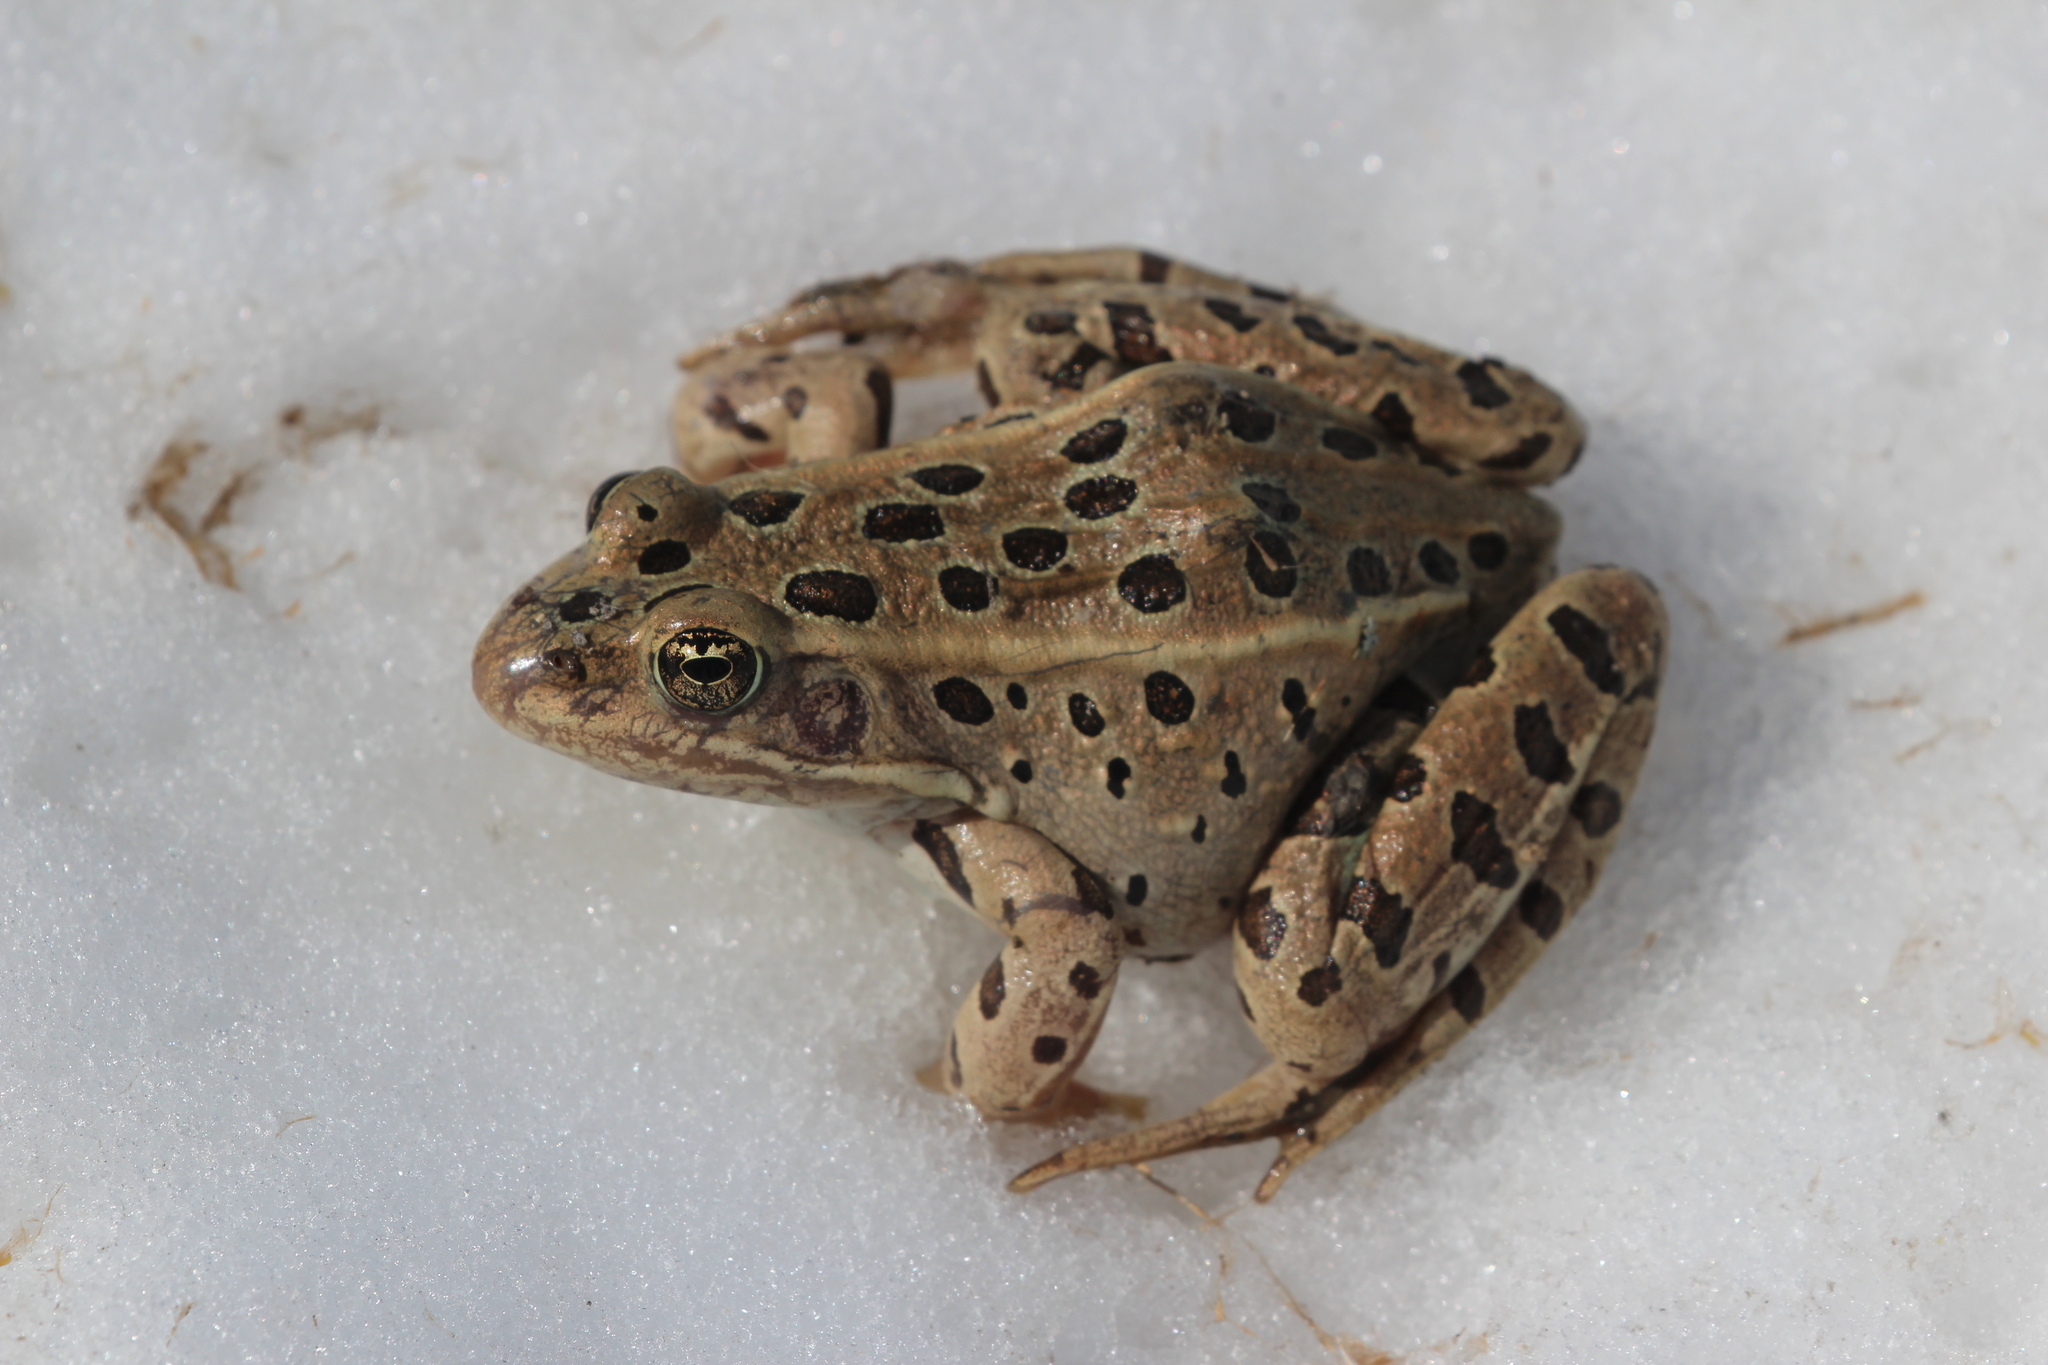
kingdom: Animalia
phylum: Chordata
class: Amphibia
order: Anura
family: Ranidae
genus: Lithobates
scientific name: Lithobates pipiens
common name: Northern leopard frog
